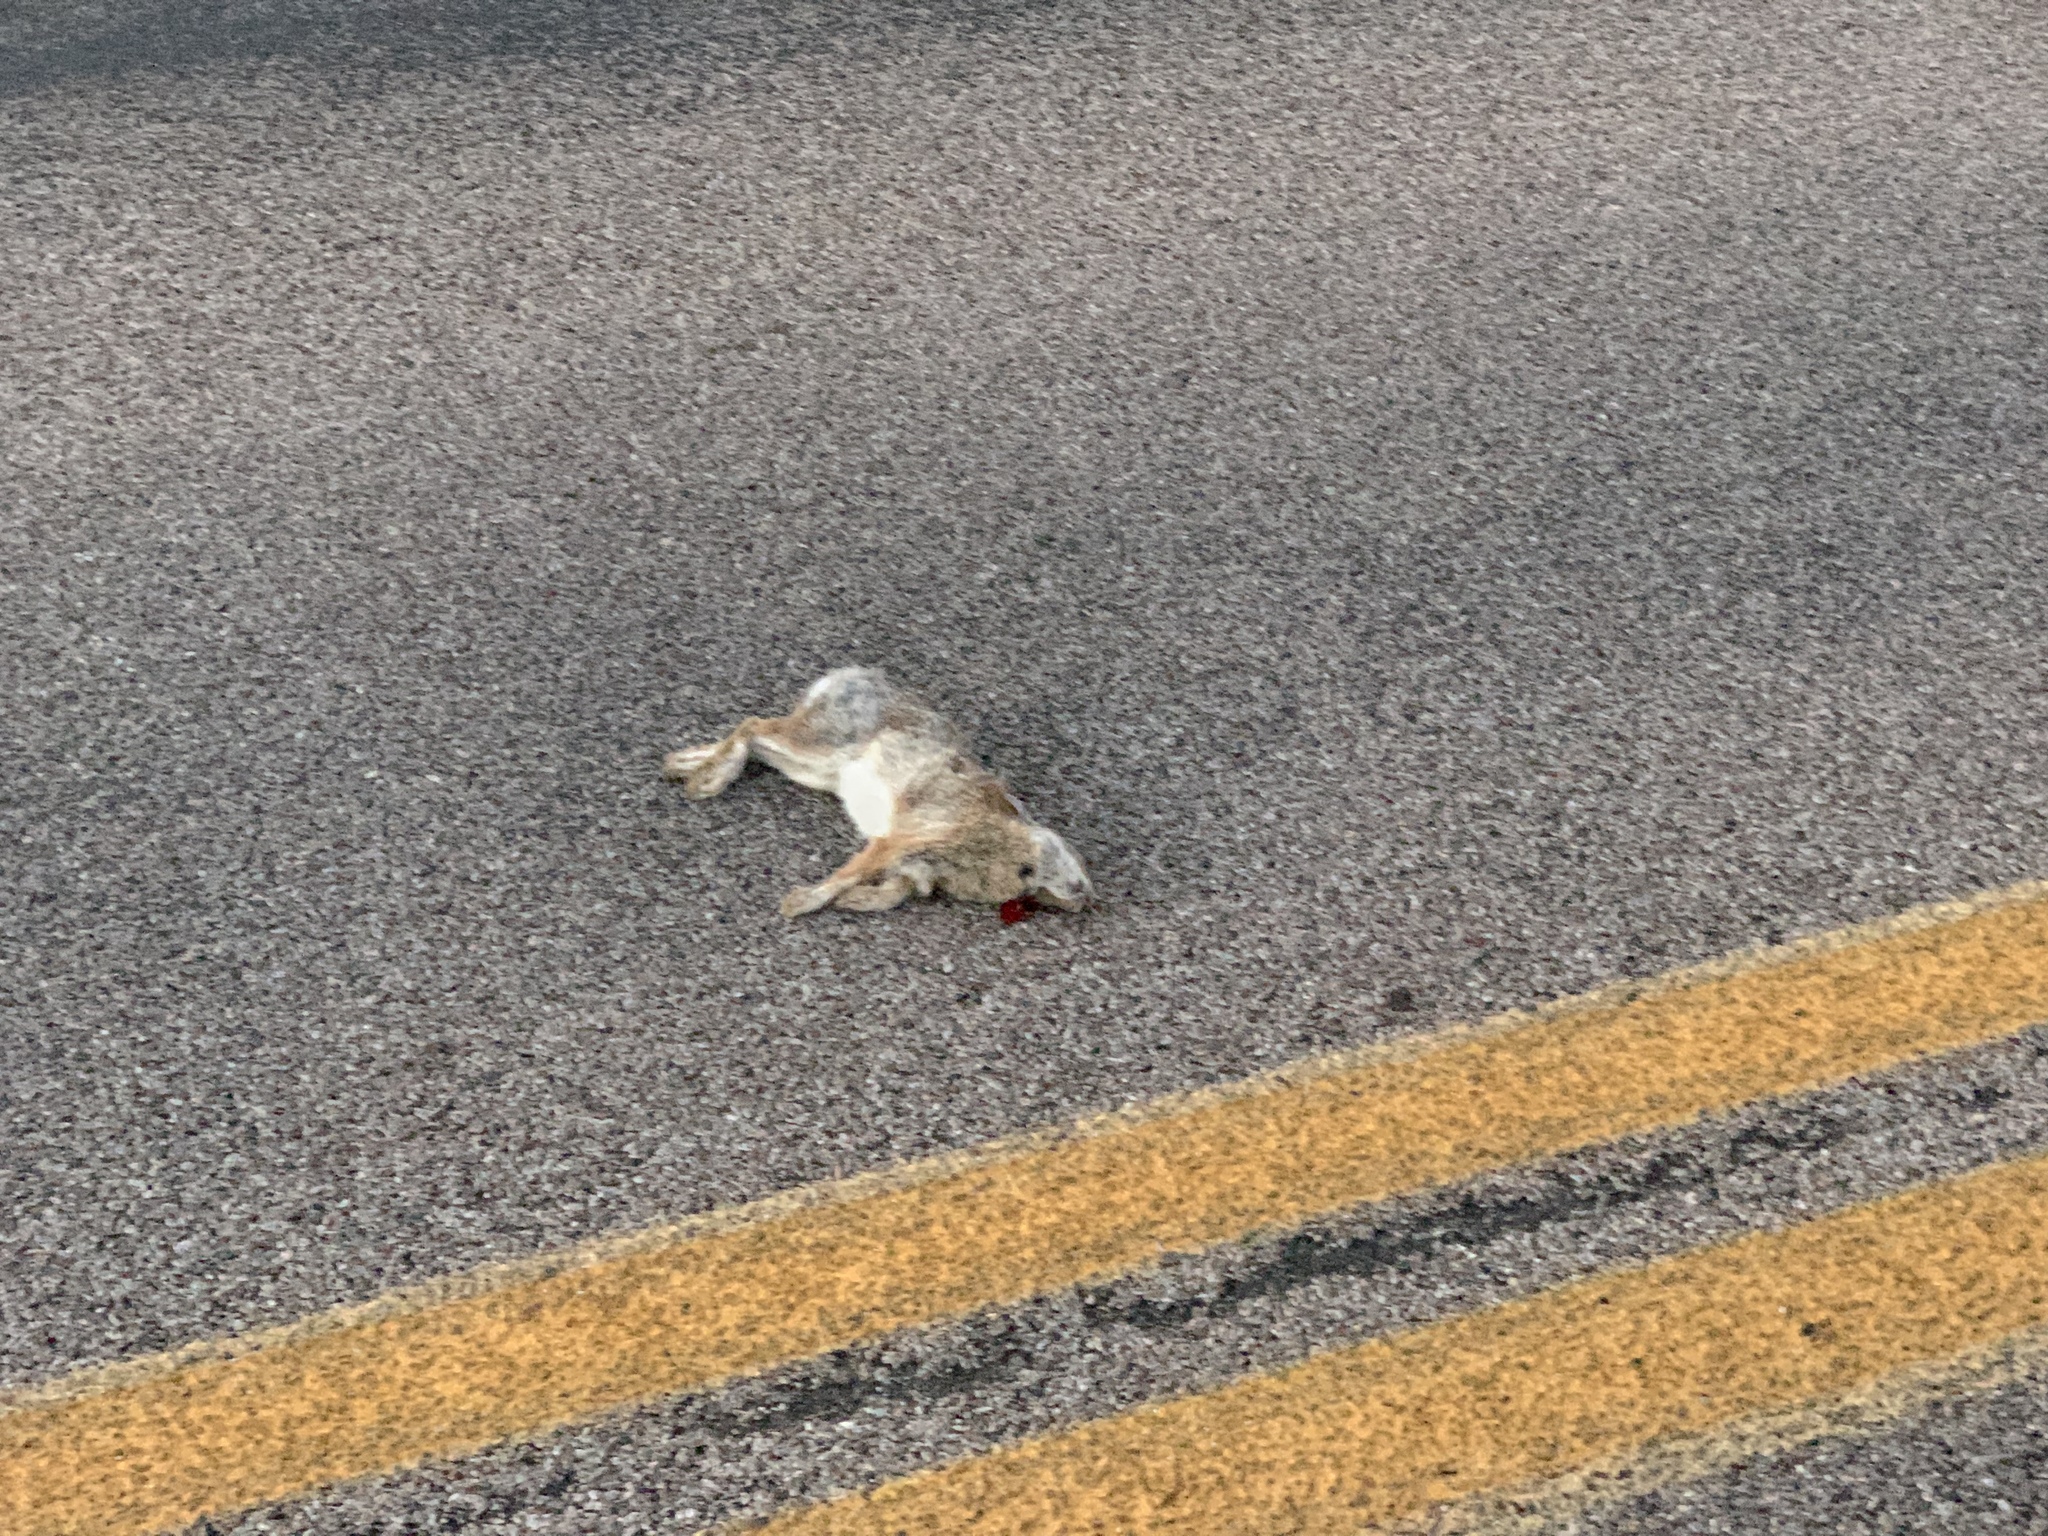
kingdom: Animalia
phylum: Chordata
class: Mammalia
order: Lagomorpha
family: Leporidae
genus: Sylvilagus
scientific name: Sylvilagus audubonii
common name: Desert cottontail
